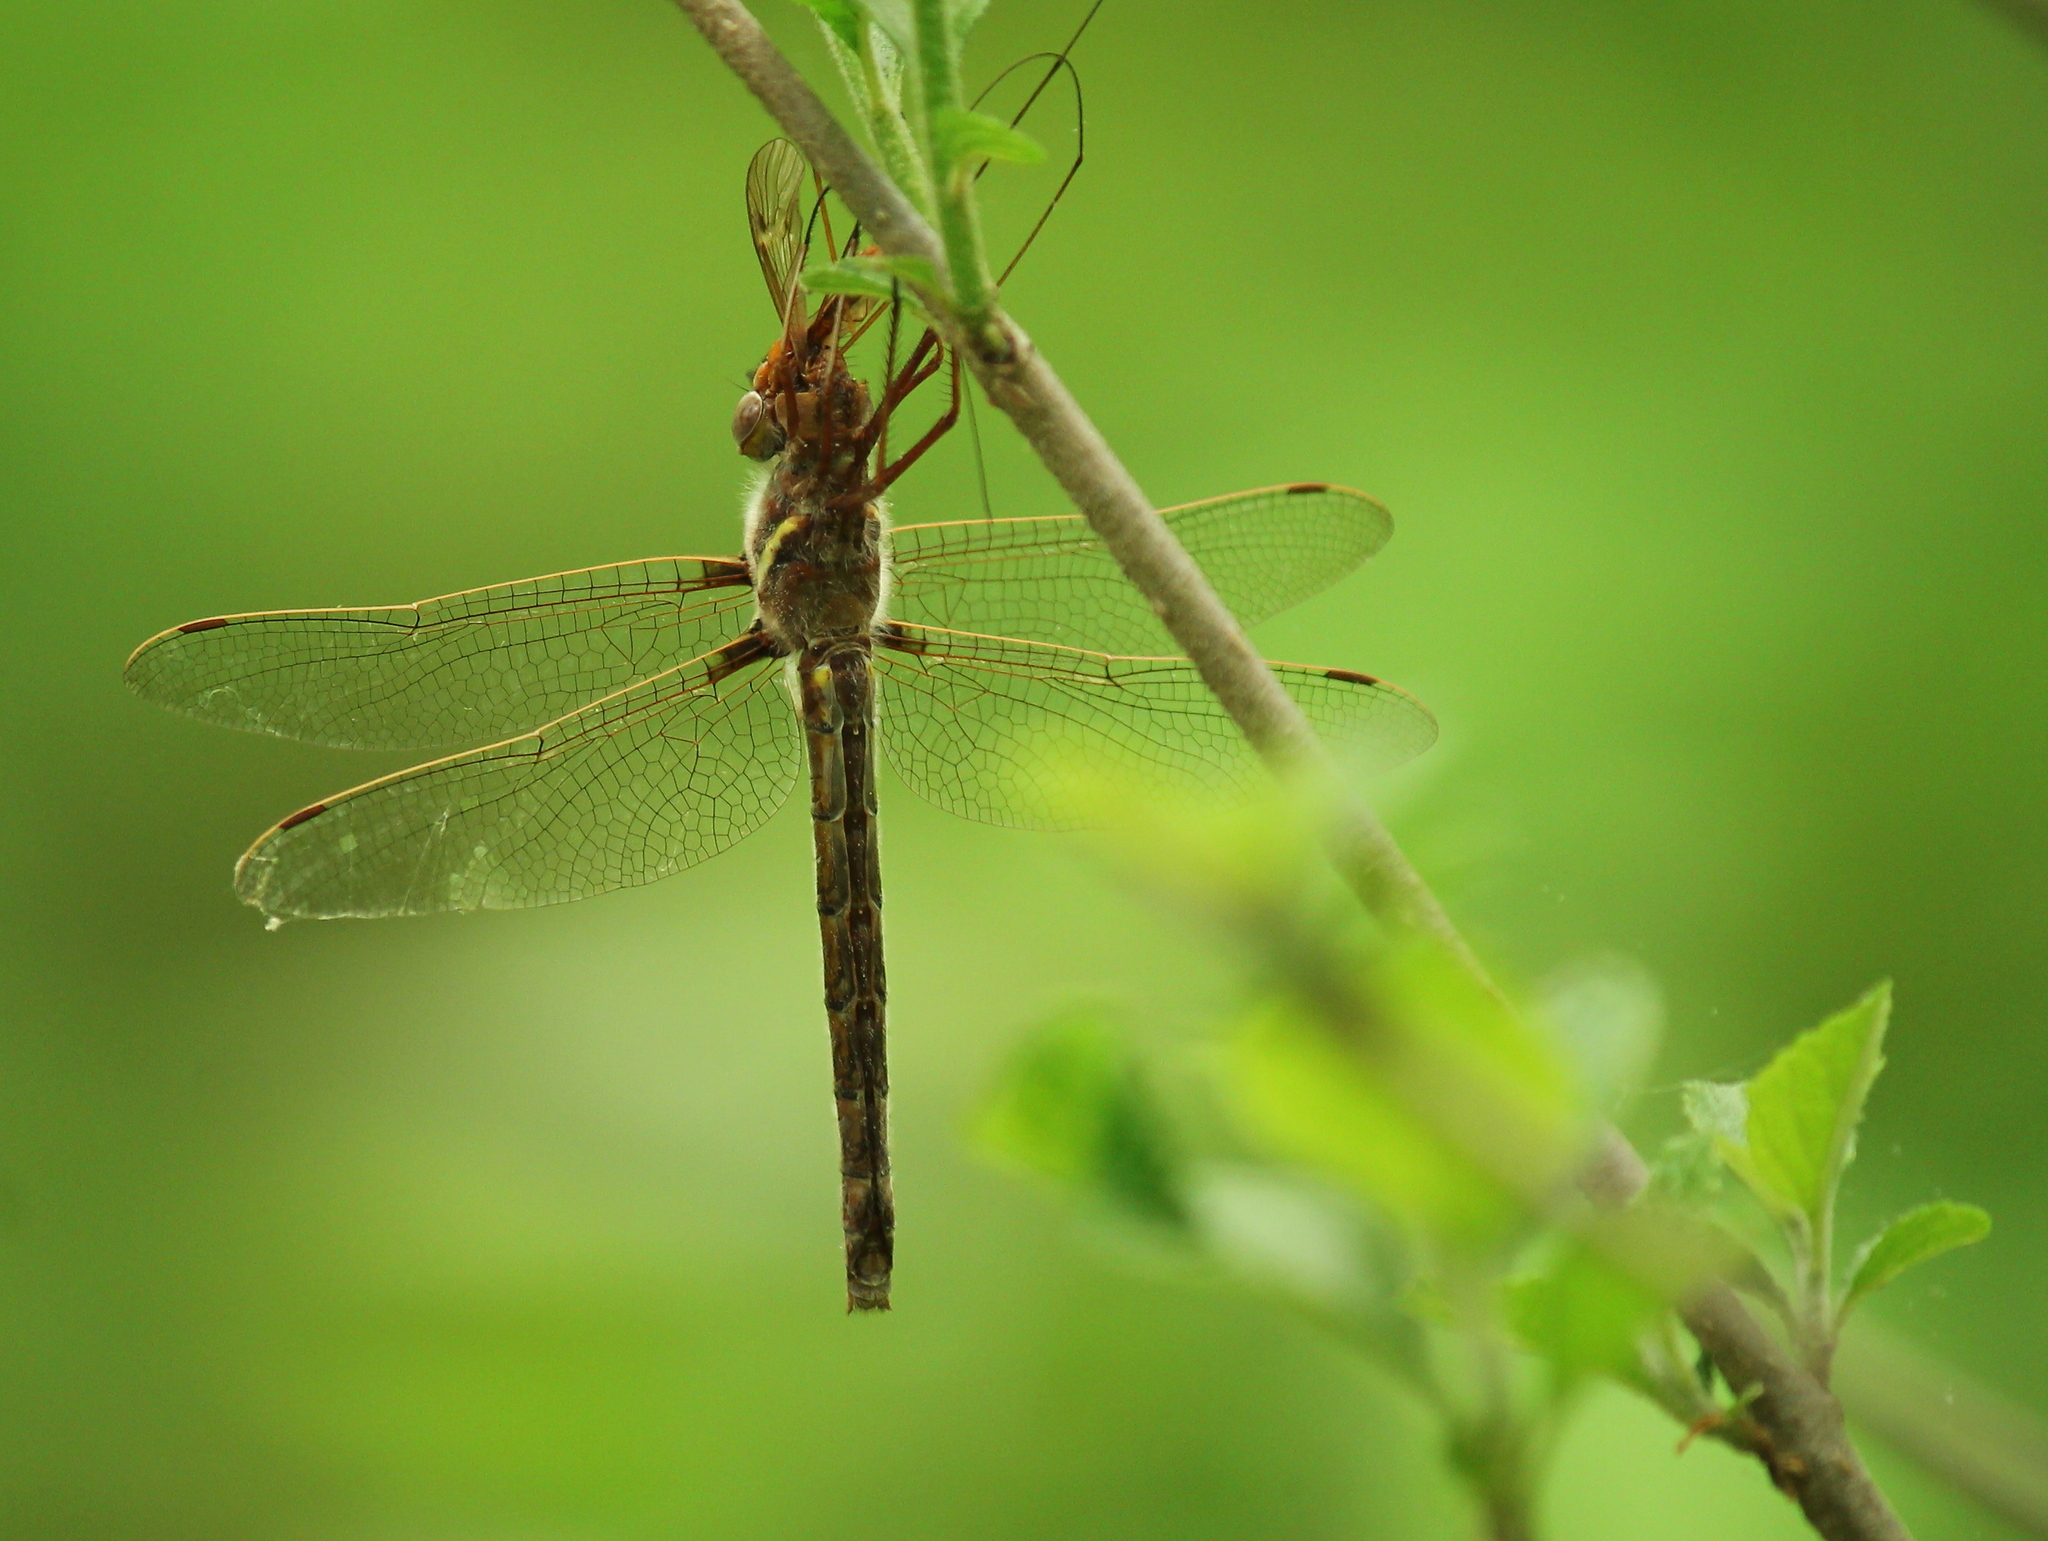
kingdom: Animalia
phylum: Arthropoda
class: Insecta
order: Odonata
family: Macromiidae
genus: Didymops
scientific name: Didymops transversa
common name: Stream cruiser
